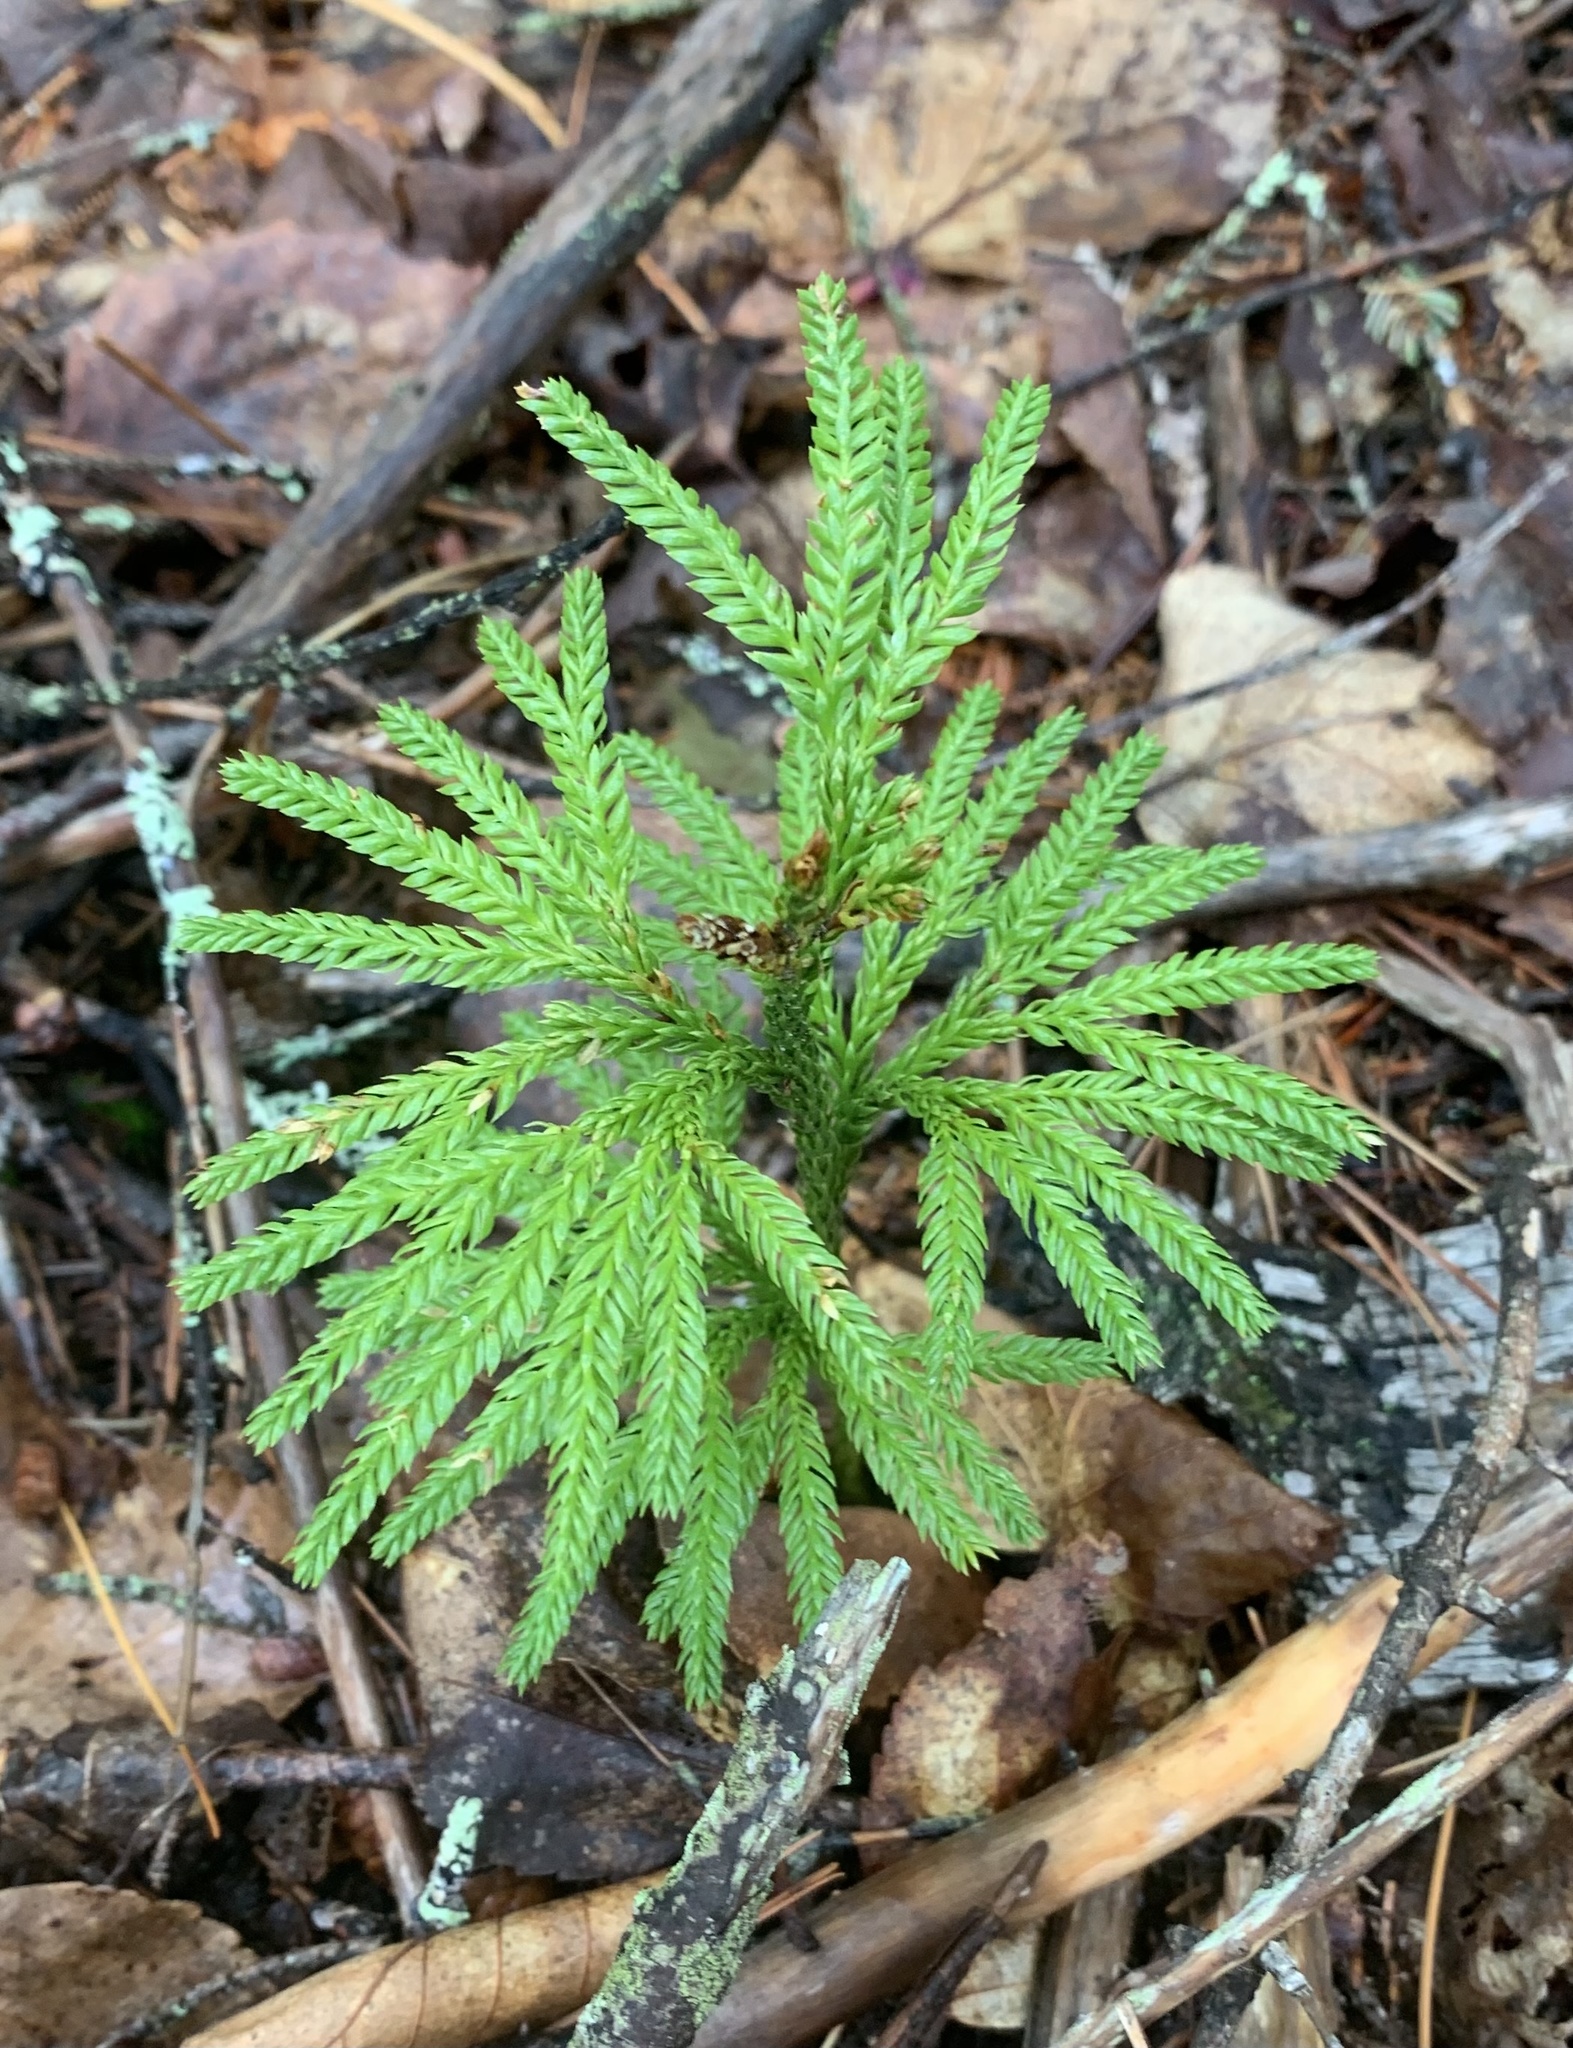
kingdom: Plantae
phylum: Tracheophyta
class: Lycopodiopsida
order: Lycopodiales
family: Lycopodiaceae
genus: Dendrolycopodium
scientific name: Dendrolycopodium obscurum
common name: Common ground-pine
